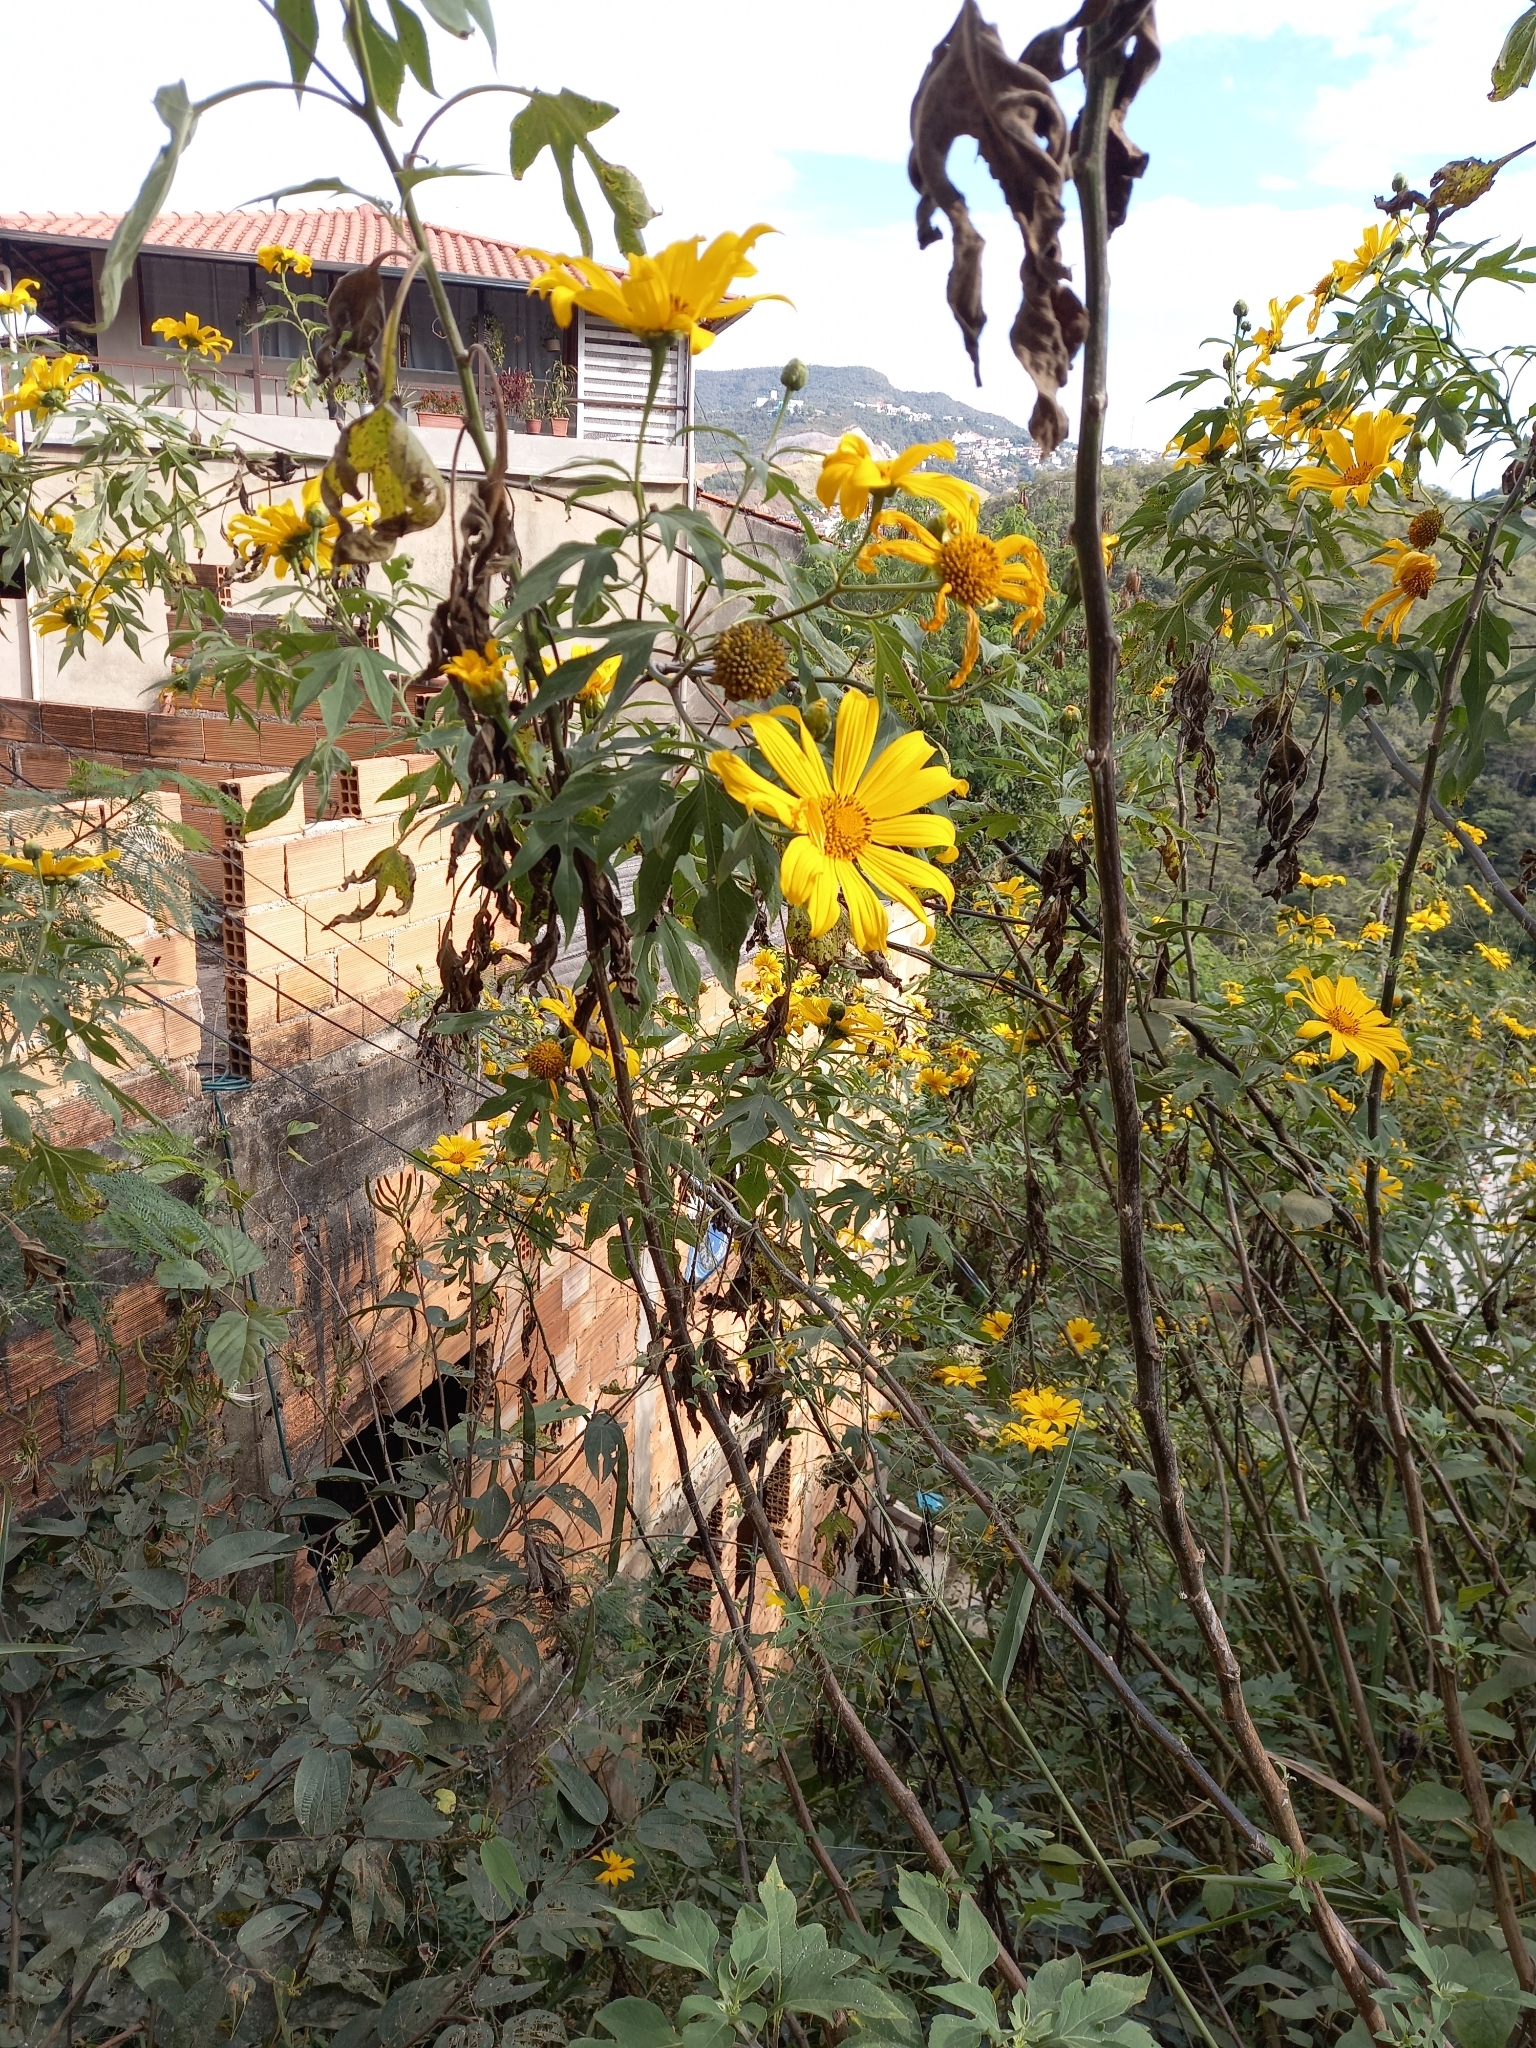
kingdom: Plantae
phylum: Tracheophyta
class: Magnoliopsida
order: Asterales
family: Asteraceae
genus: Tithonia
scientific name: Tithonia diversifolia
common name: Tree marigold
